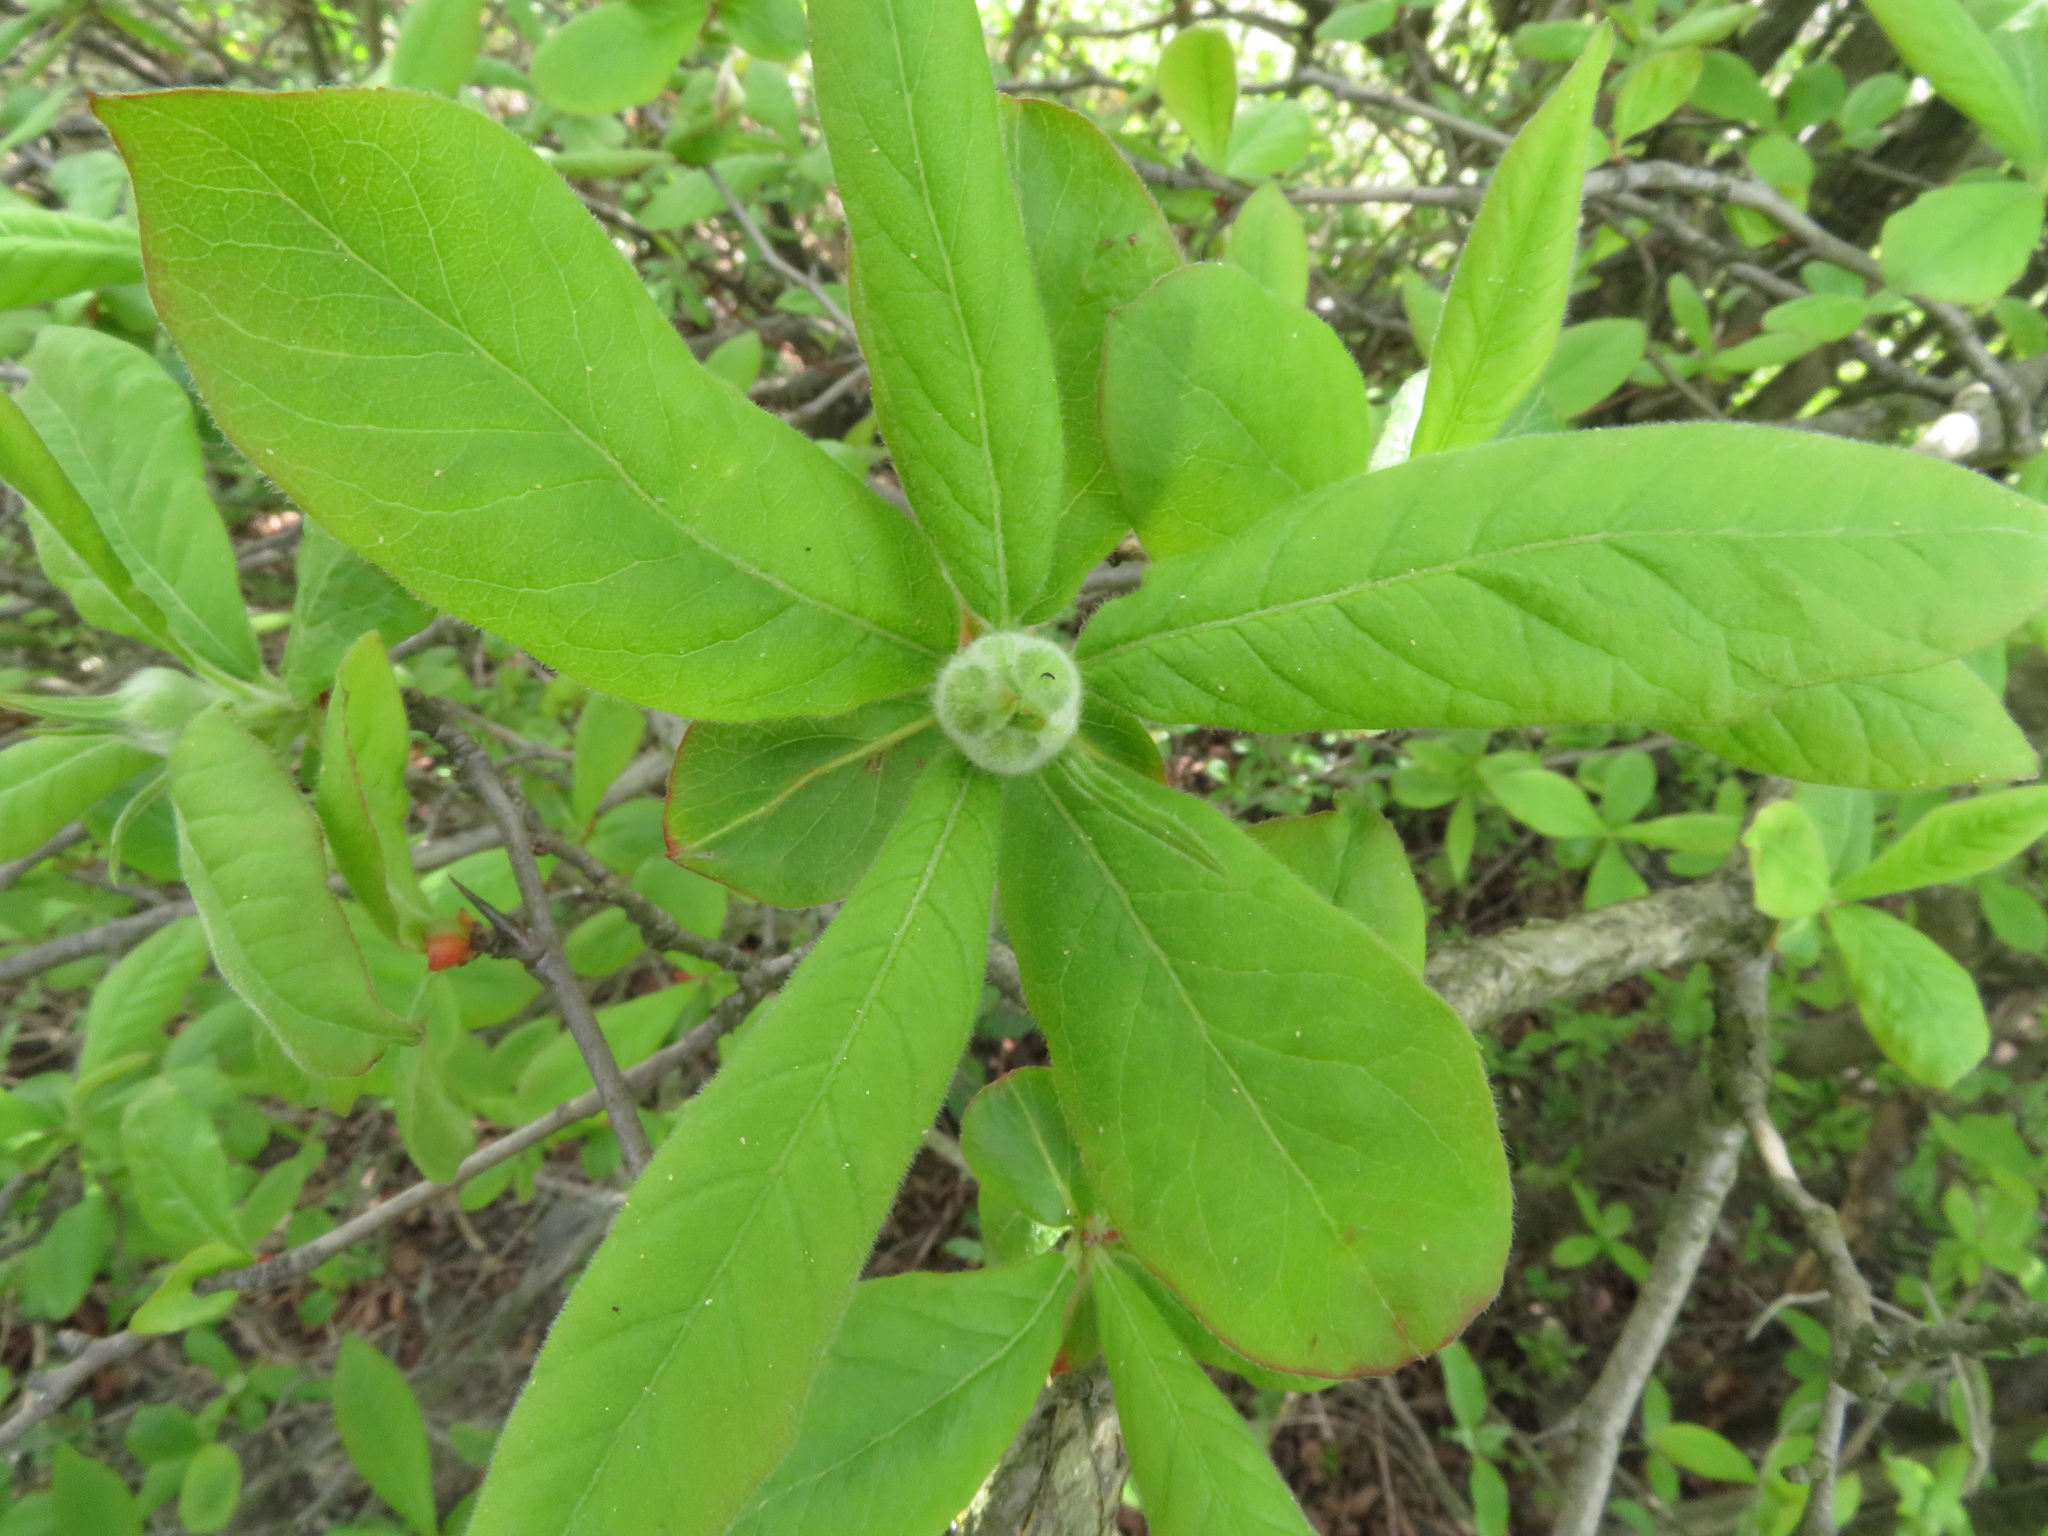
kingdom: Plantae
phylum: Tracheophyta
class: Magnoliopsida
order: Rosales
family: Rosaceae
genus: Mespilus
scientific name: Mespilus germanica
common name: Medlar
